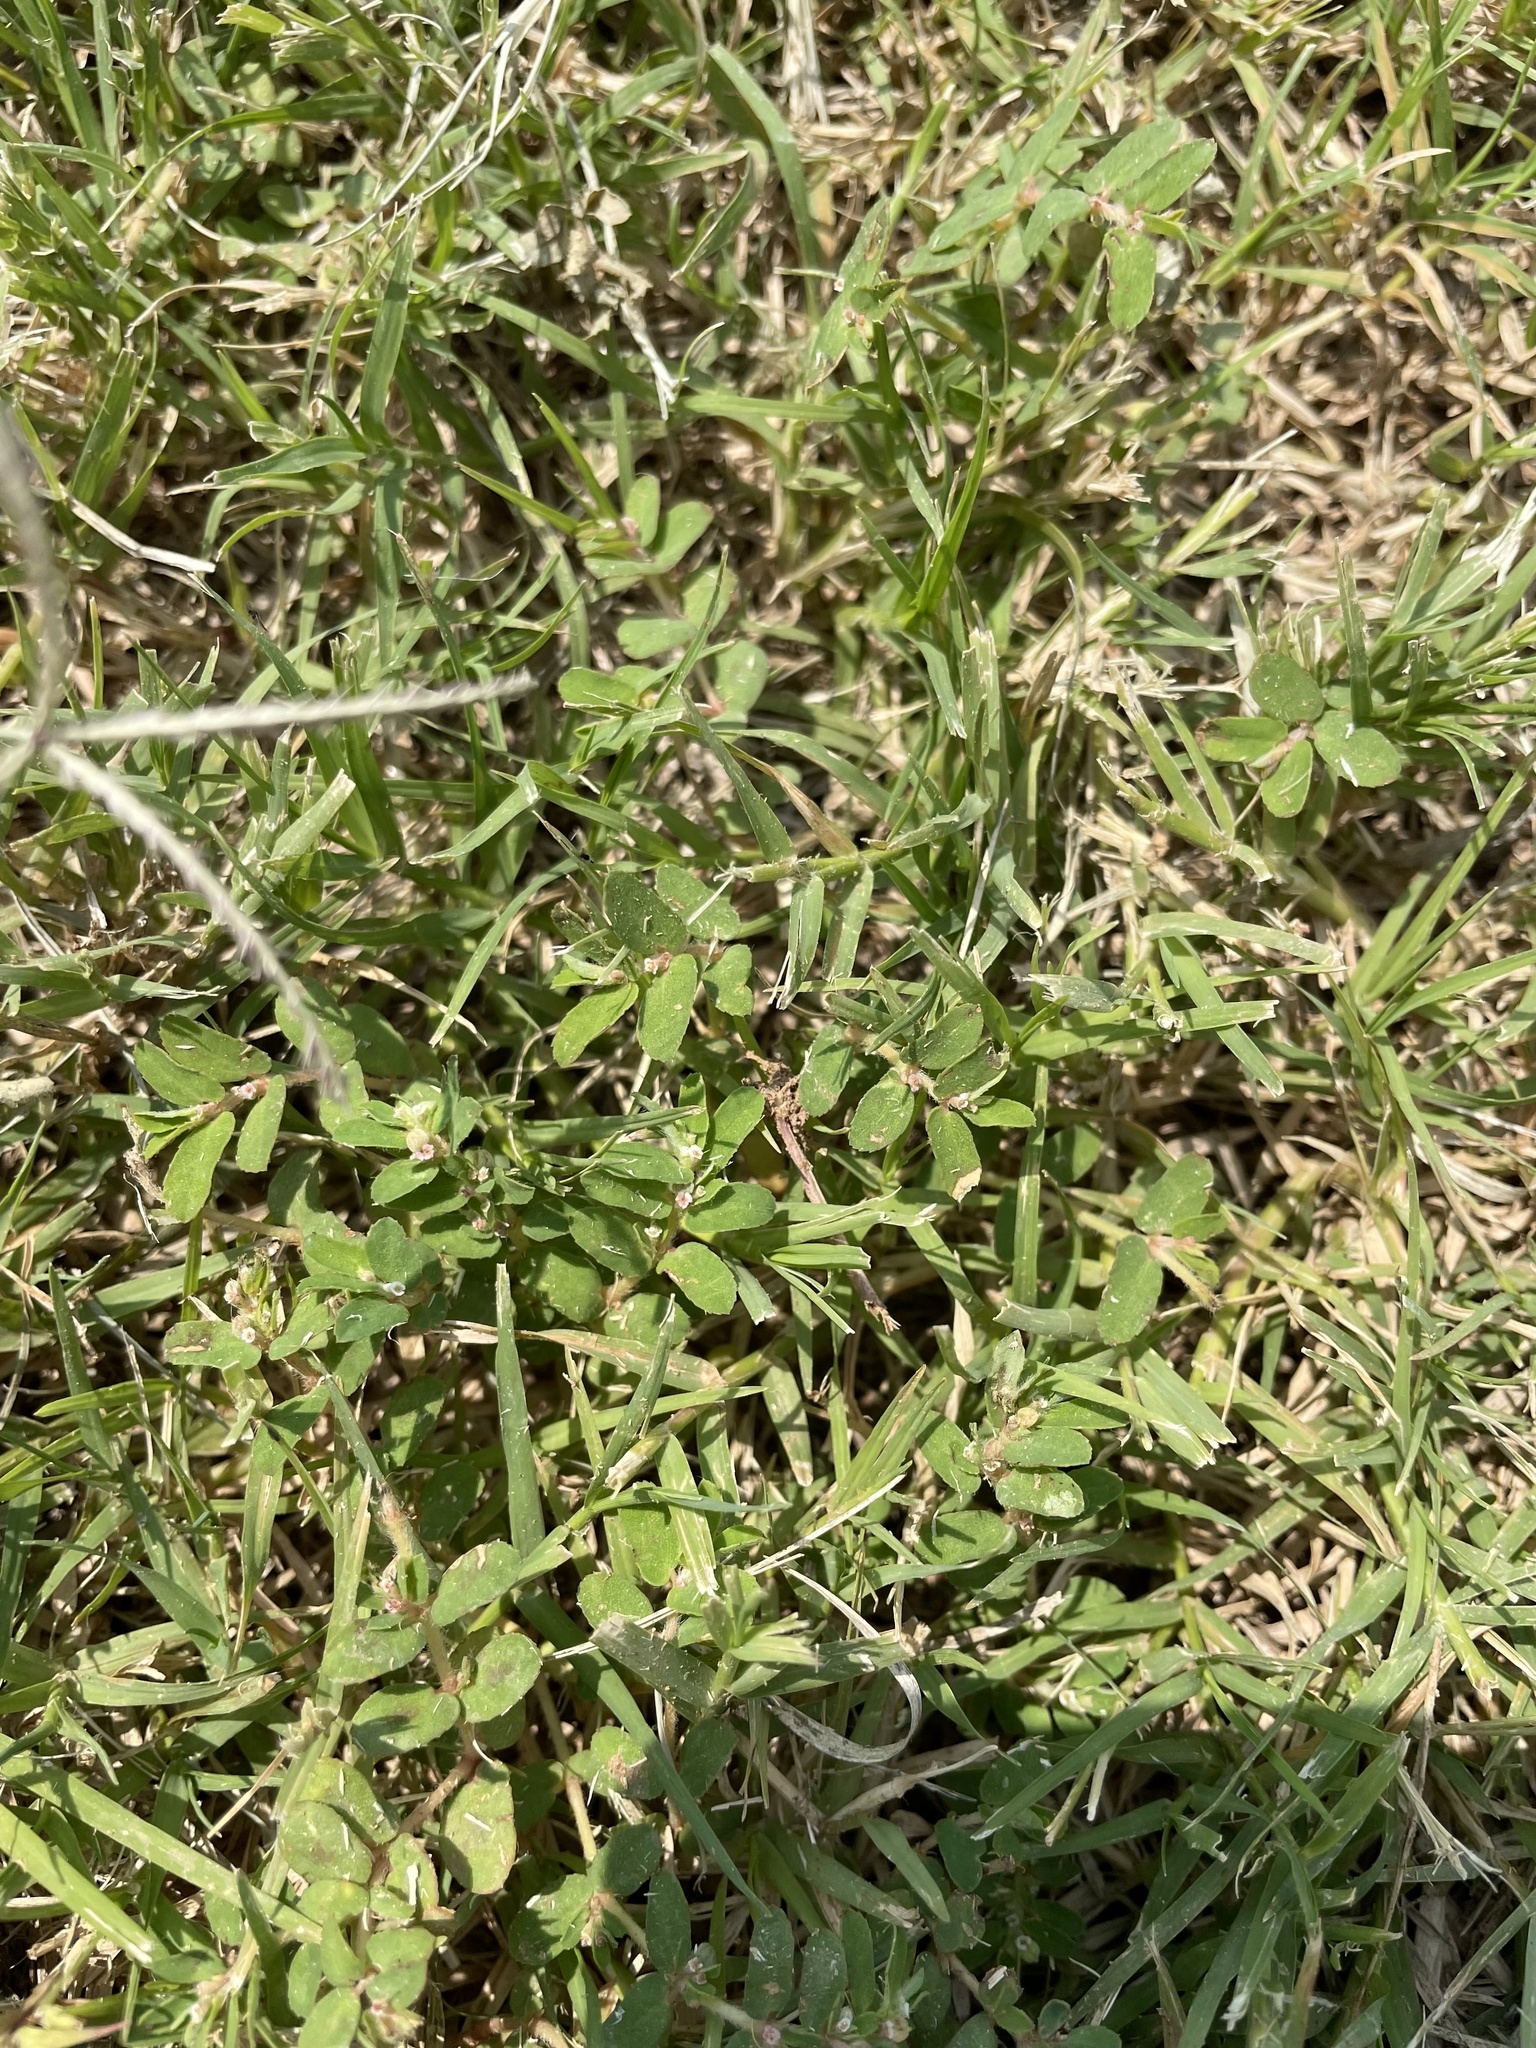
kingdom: Plantae
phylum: Tracheophyta
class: Magnoliopsida
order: Malpighiales
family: Euphorbiaceae
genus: Euphorbia
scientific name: Euphorbia maculata
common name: Spotted spurge
